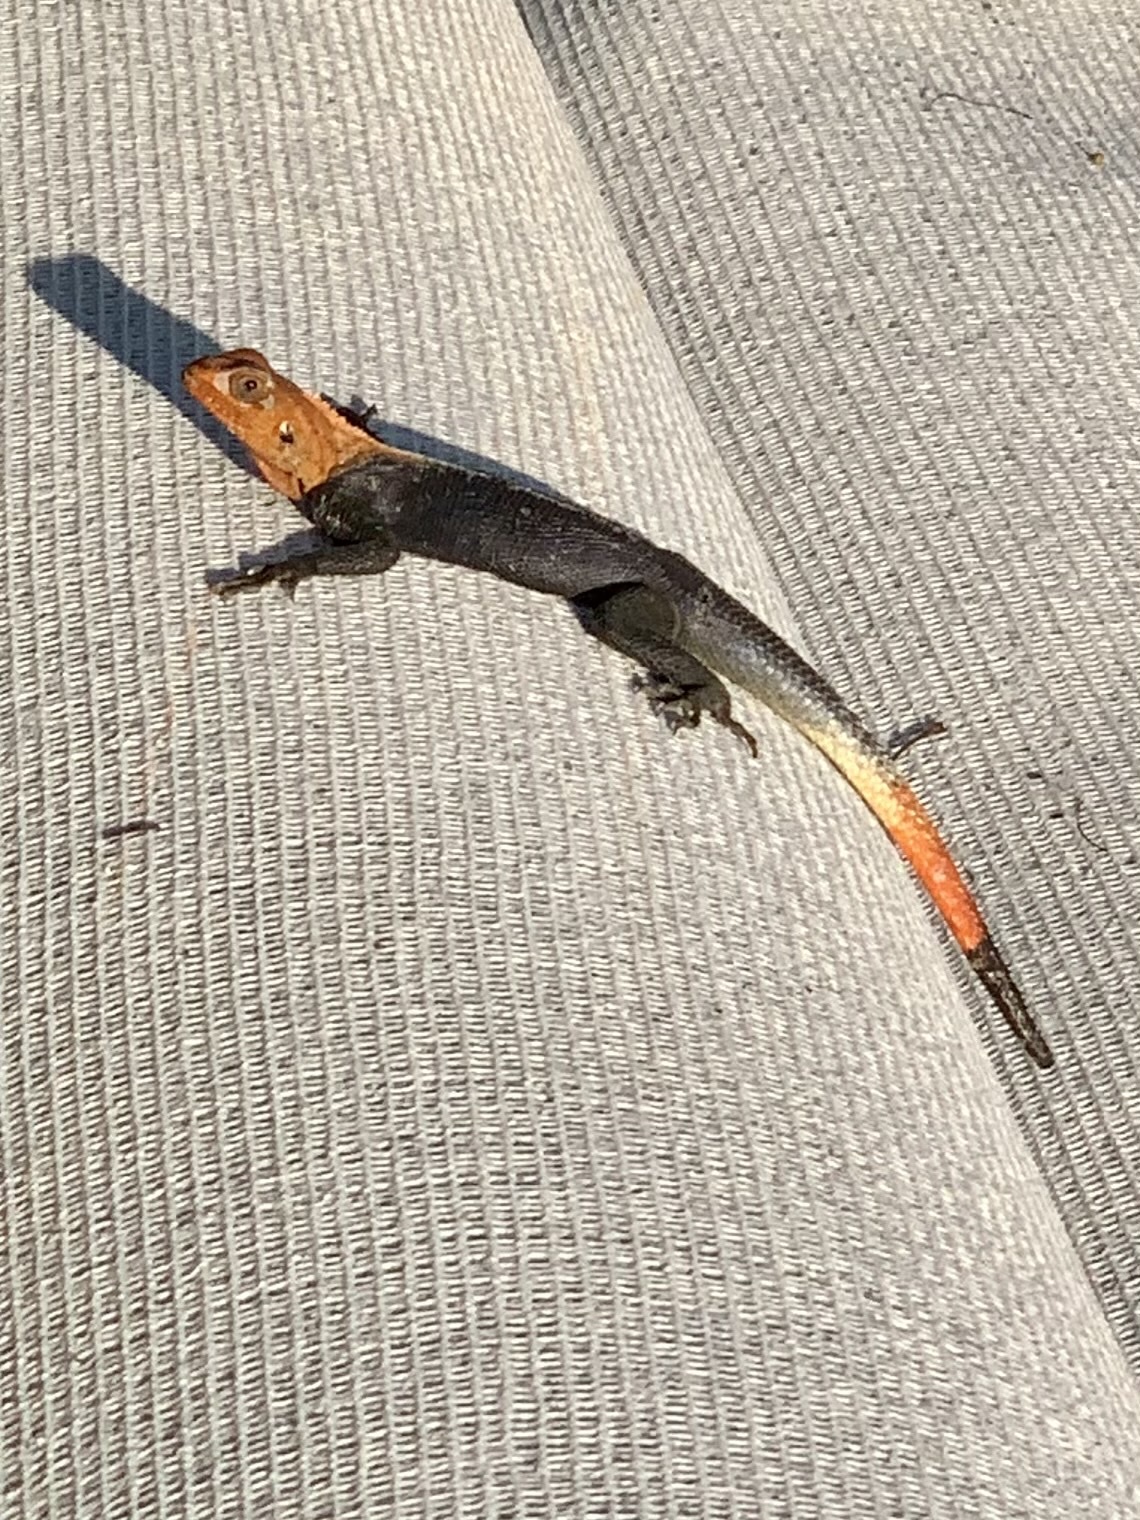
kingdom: Animalia
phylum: Chordata
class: Squamata
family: Agamidae
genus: Agama
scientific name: Agama picticauda
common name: Red-headed agama
